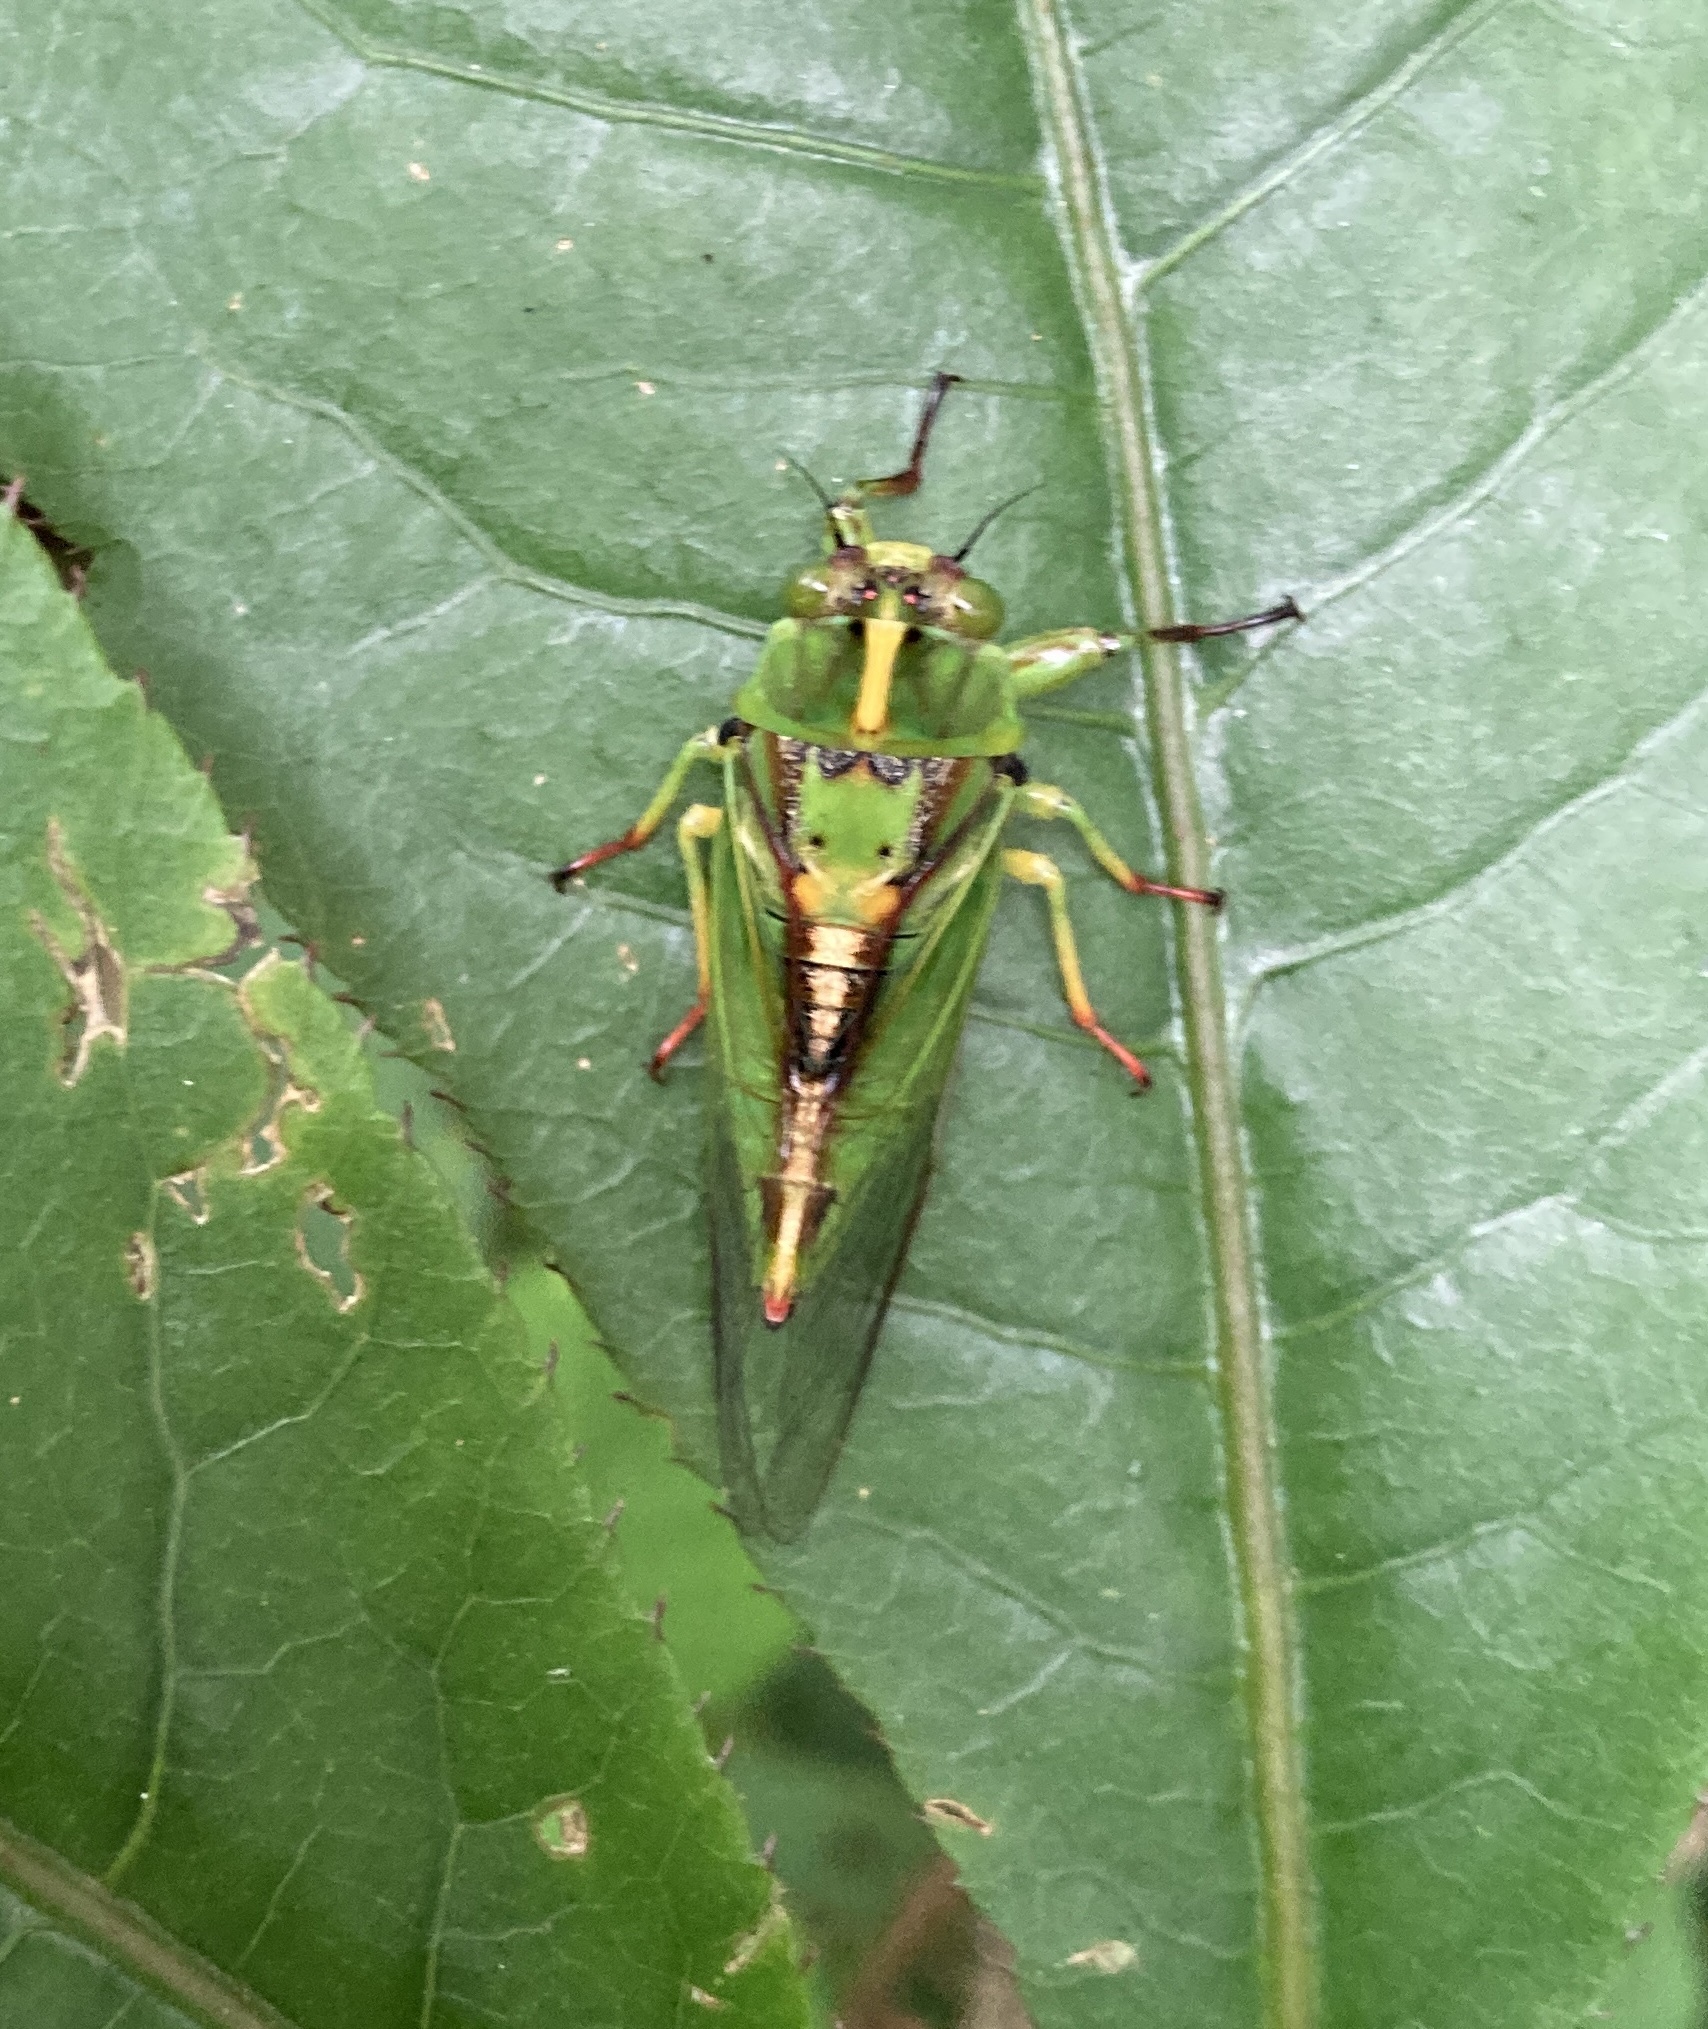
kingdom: Animalia
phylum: Arthropoda
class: Insecta
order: Hemiptera
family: Cicadidae
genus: Kikihia
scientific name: Kikihia subalpina
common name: Chathams cicada
